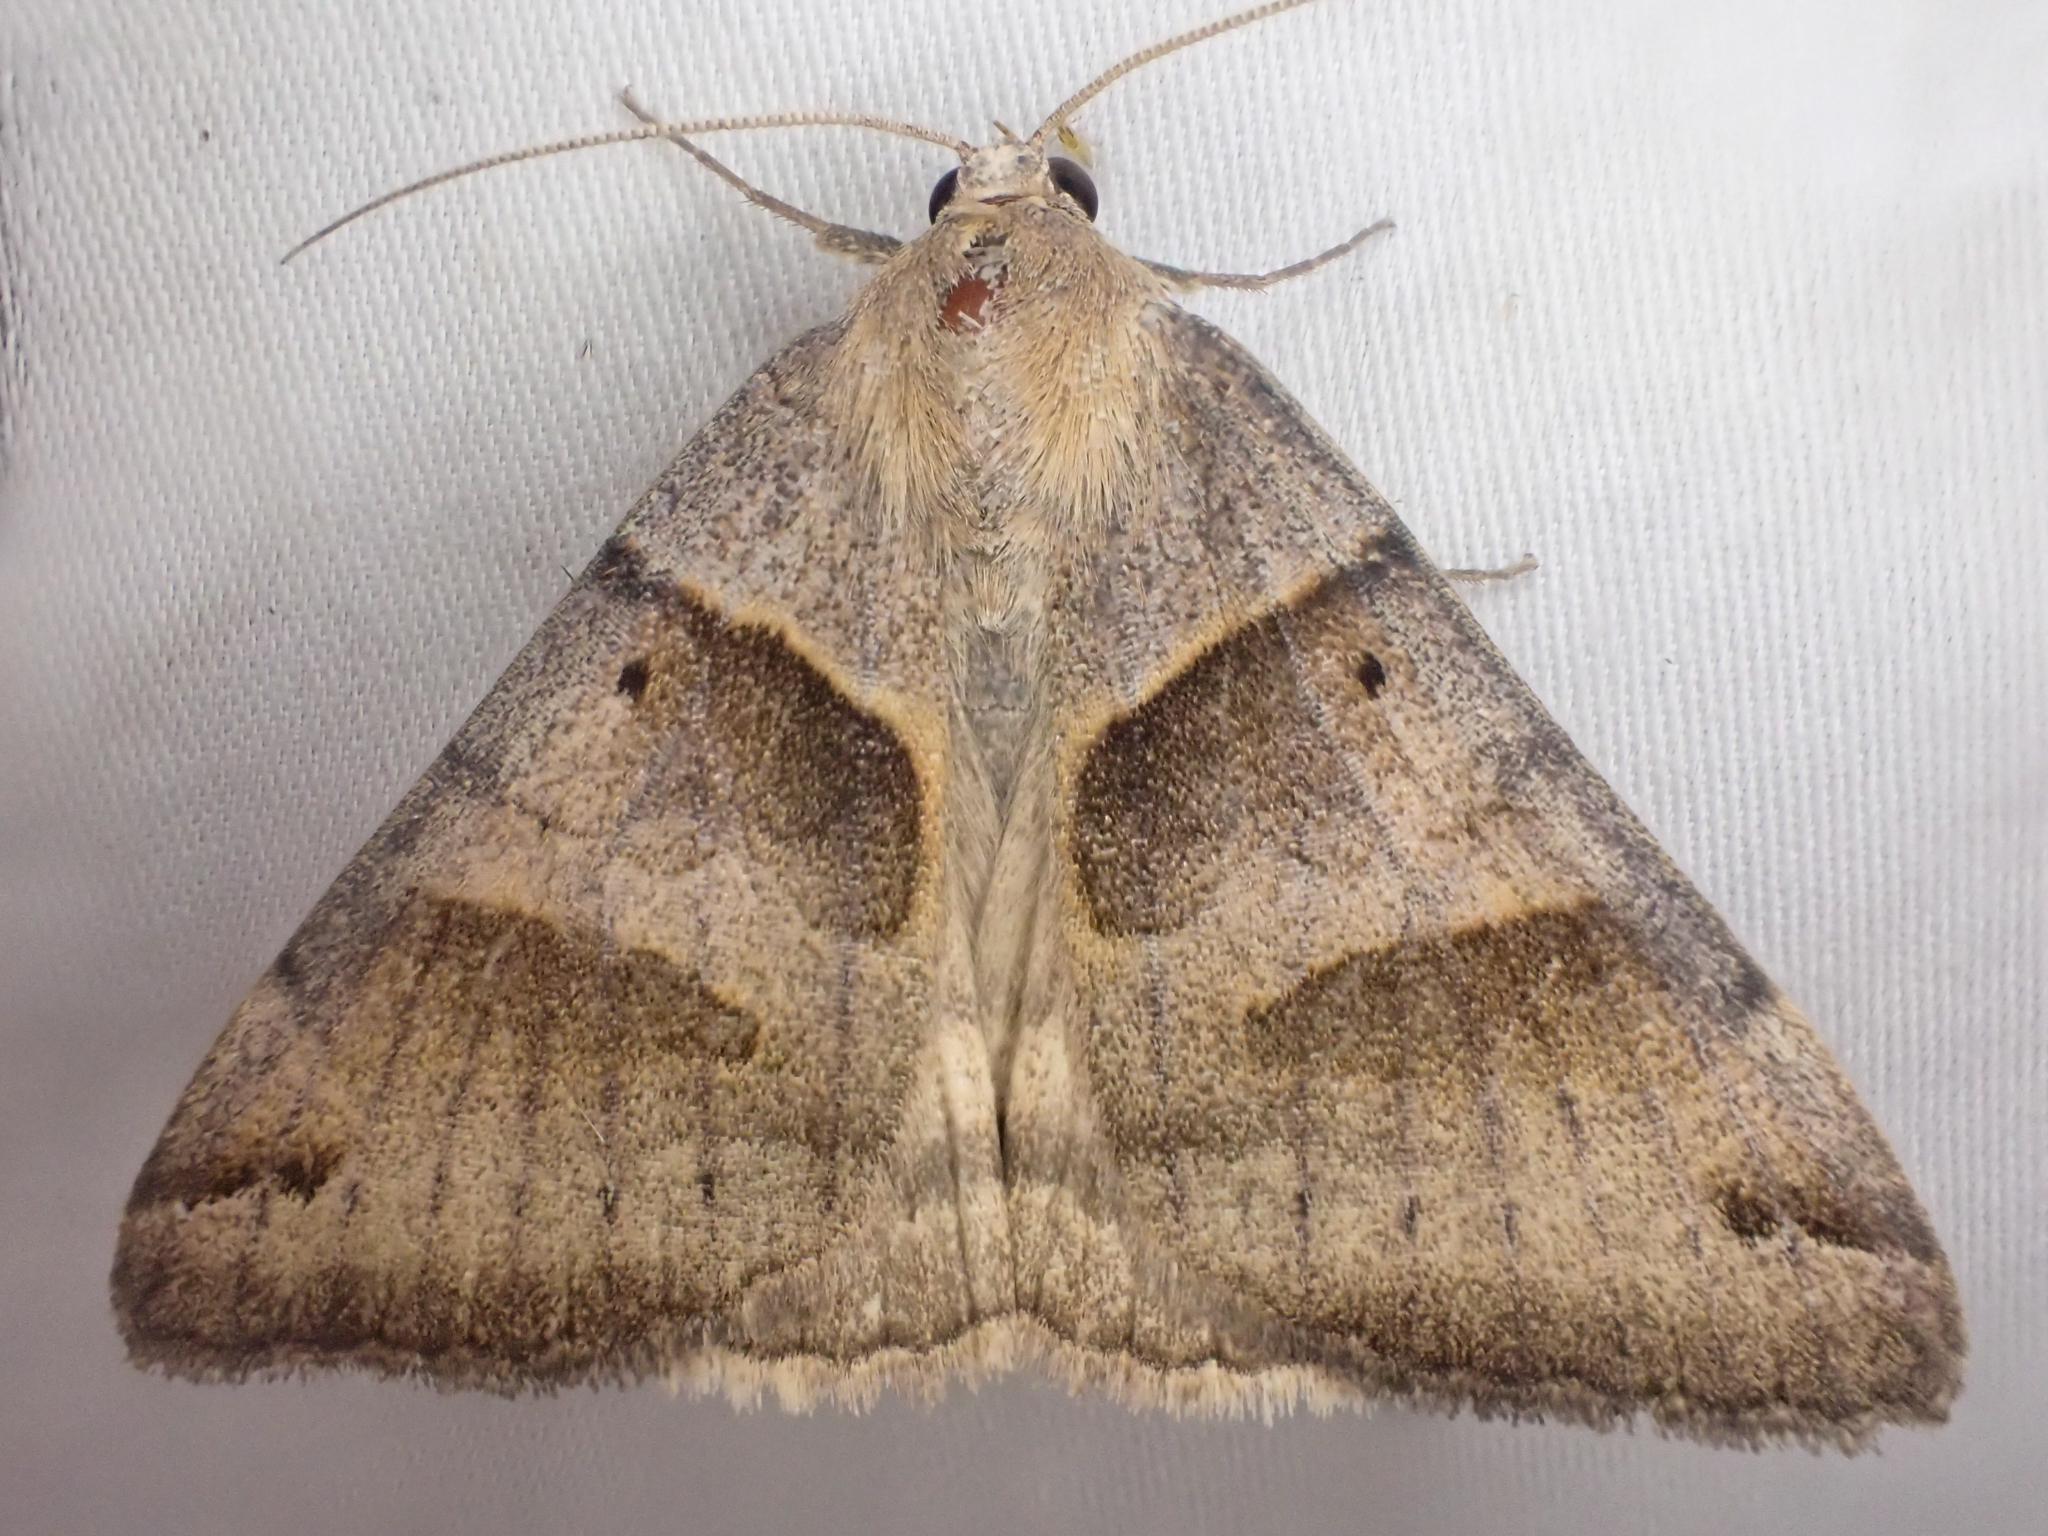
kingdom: Animalia
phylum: Arthropoda
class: Insecta
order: Lepidoptera
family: Erebidae
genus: Caenurgina
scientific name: Caenurgina erechtea
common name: Forage looper moth
